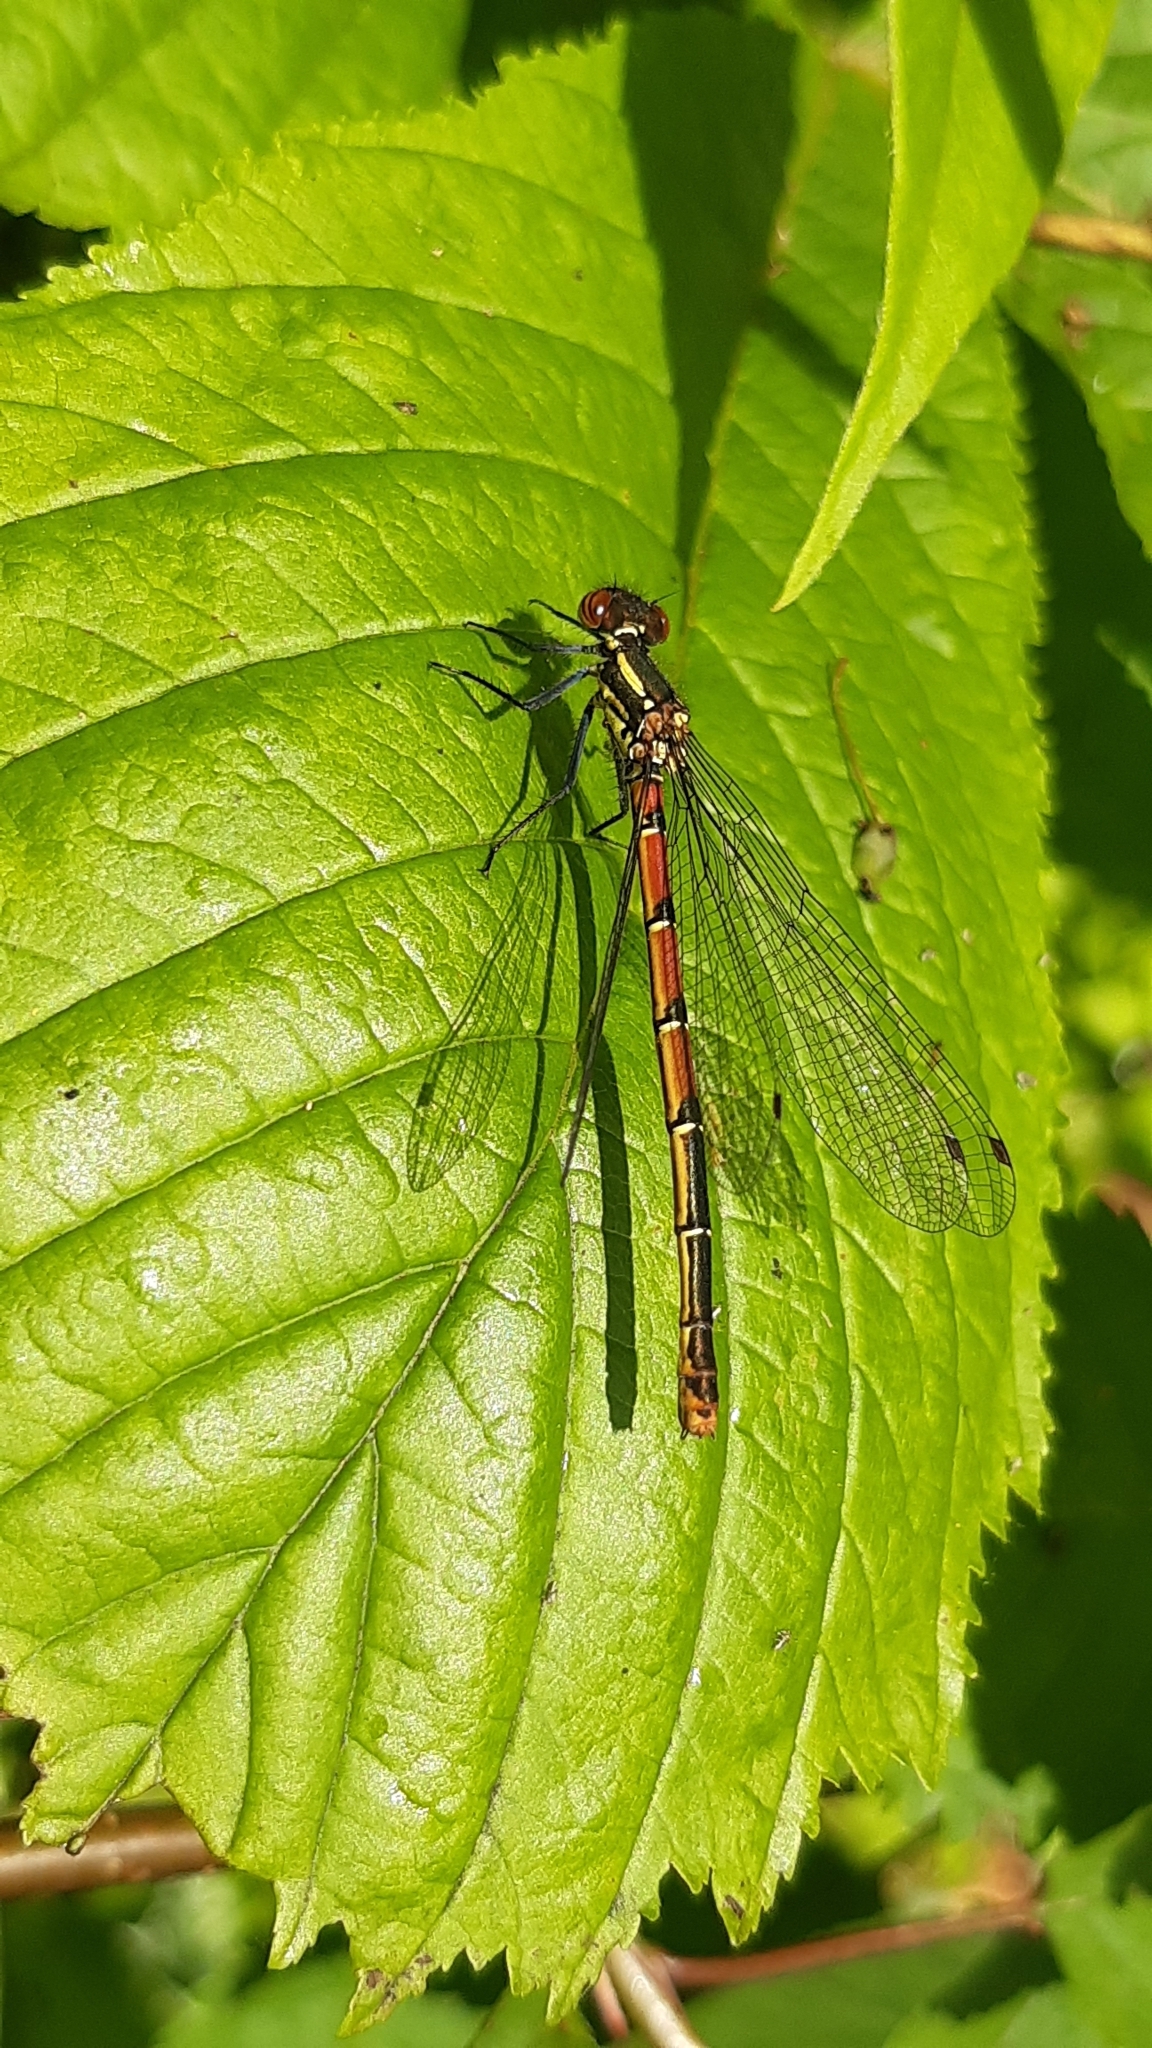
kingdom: Animalia
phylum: Arthropoda
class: Insecta
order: Odonata
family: Coenagrionidae
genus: Pyrrhosoma
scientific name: Pyrrhosoma nymphula
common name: Large red damsel
